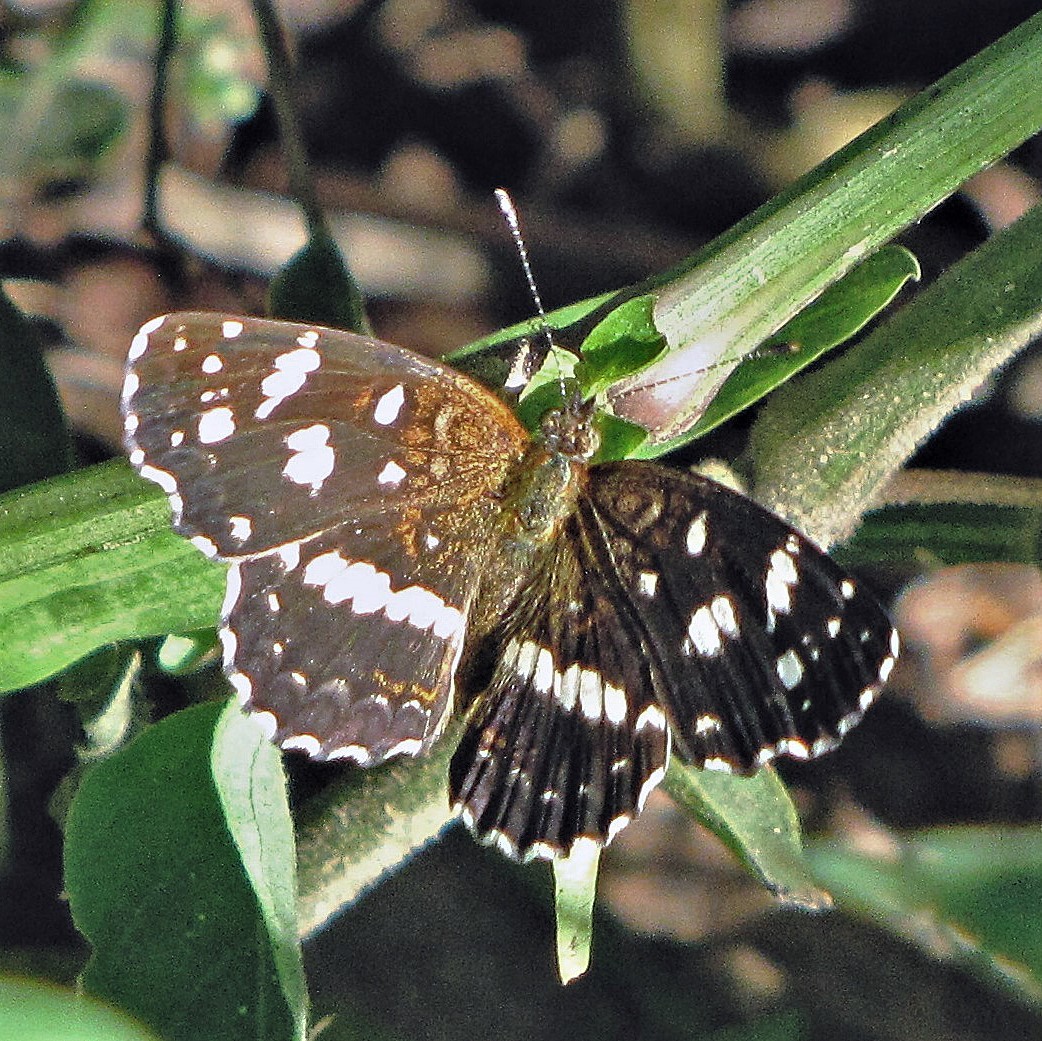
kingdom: Animalia
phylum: Arthropoda
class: Insecta
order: Lepidoptera
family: Nymphalidae
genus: Ortilia
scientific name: Ortilia ithra
